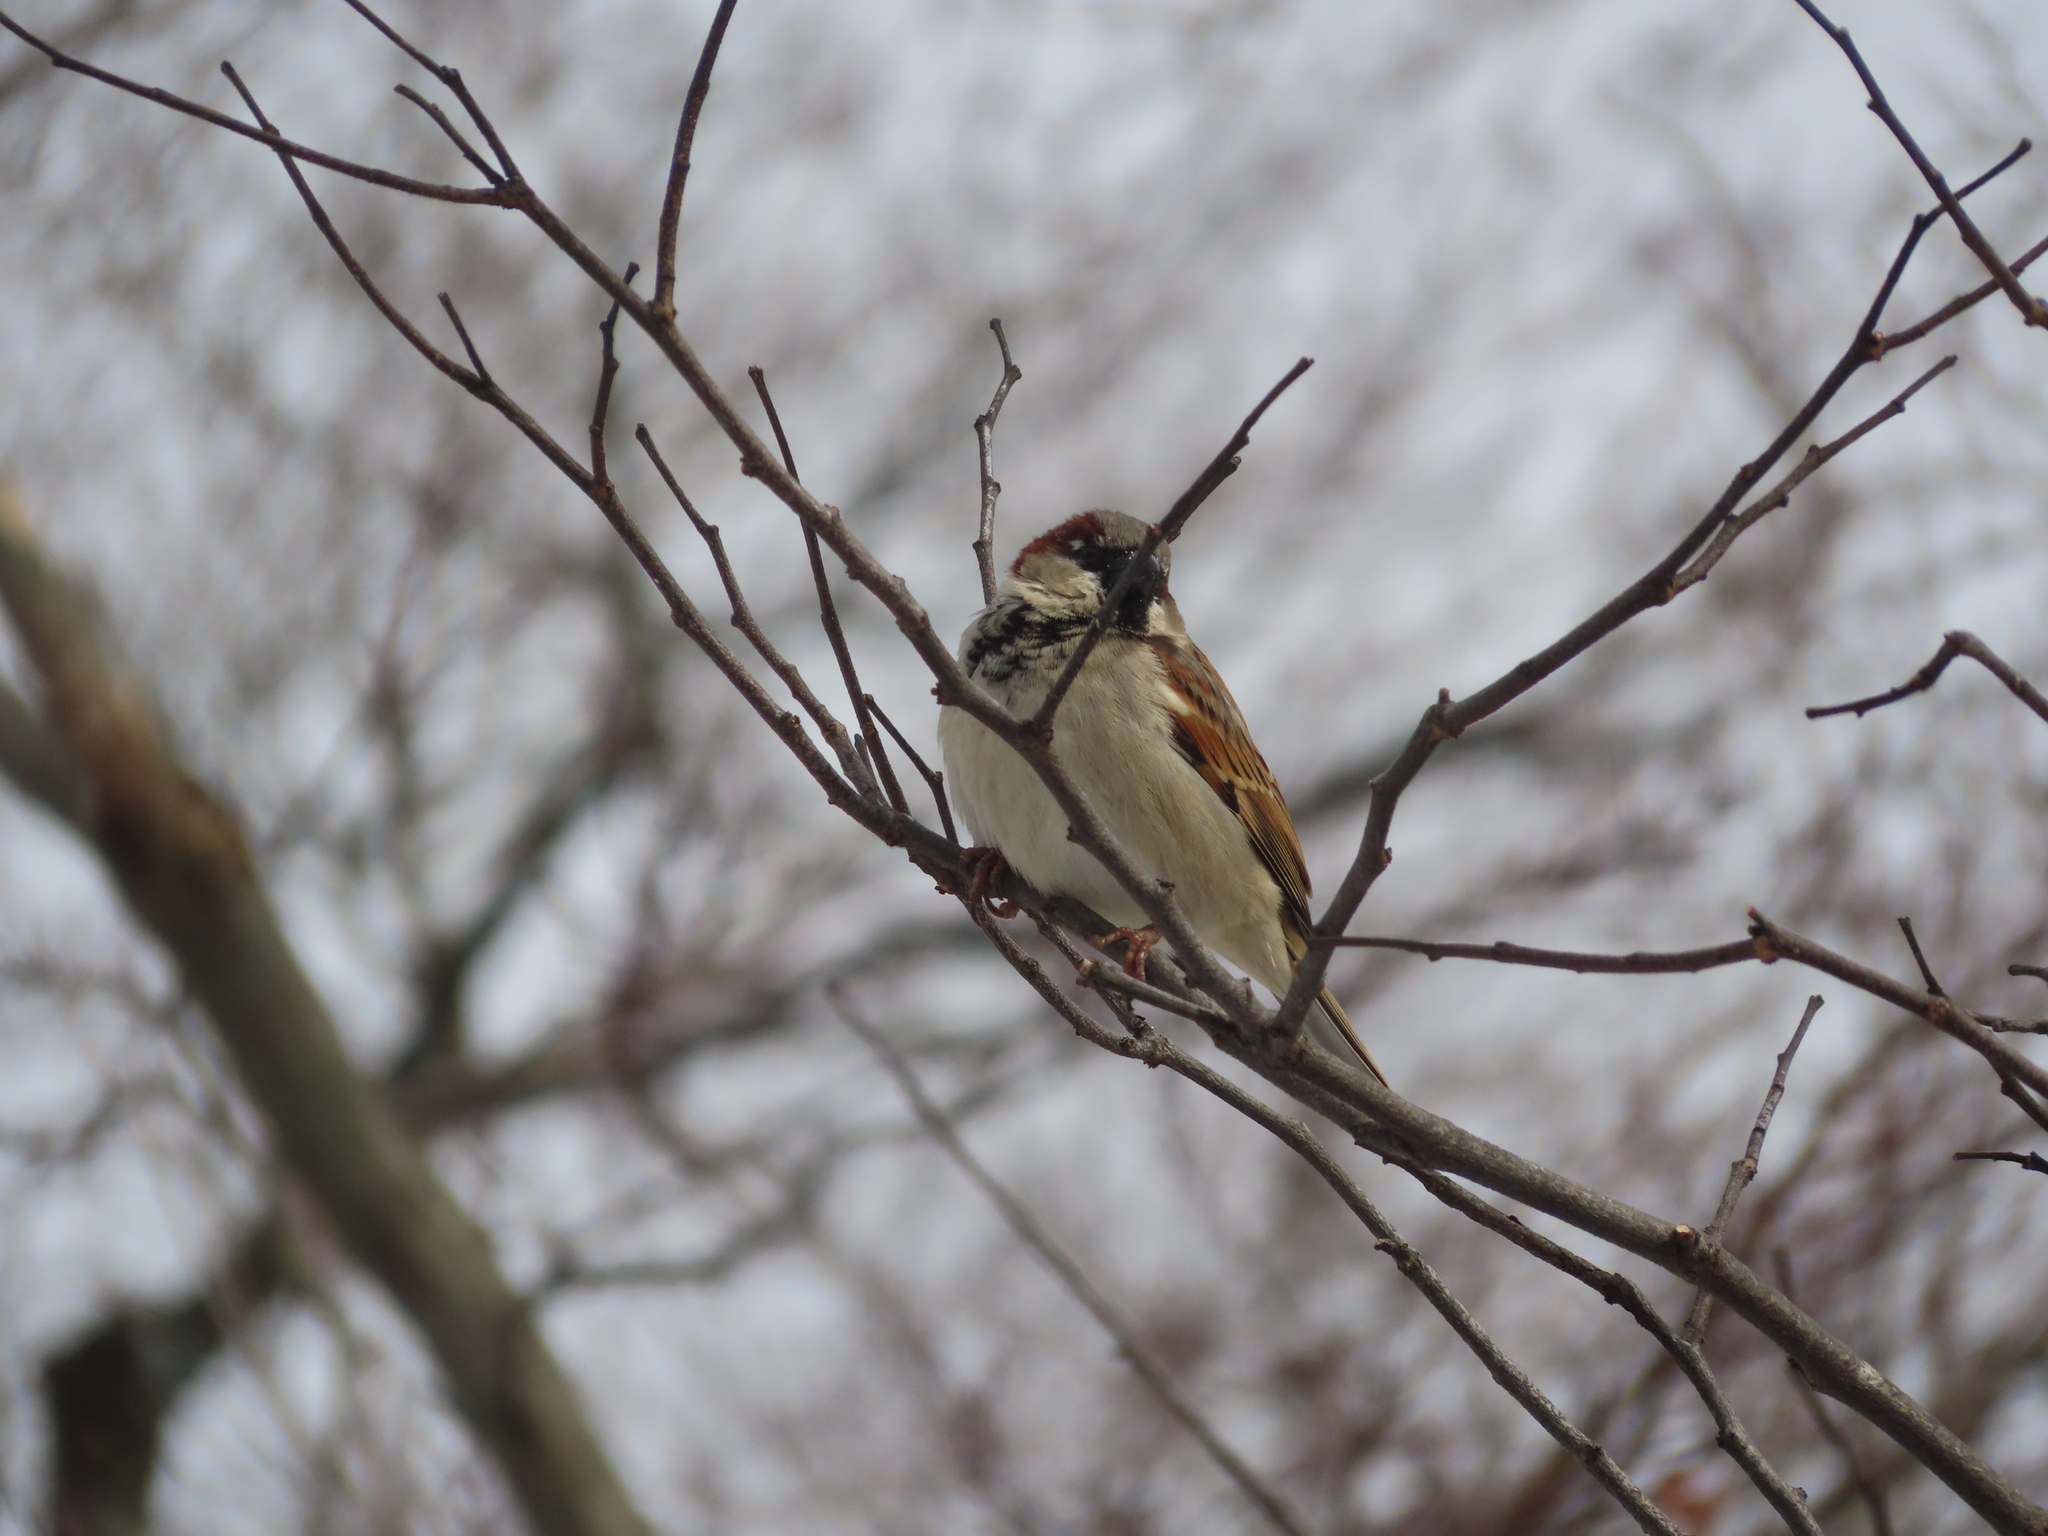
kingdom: Animalia
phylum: Chordata
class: Aves
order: Passeriformes
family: Passeridae
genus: Passer
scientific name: Passer domesticus
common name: House sparrow
